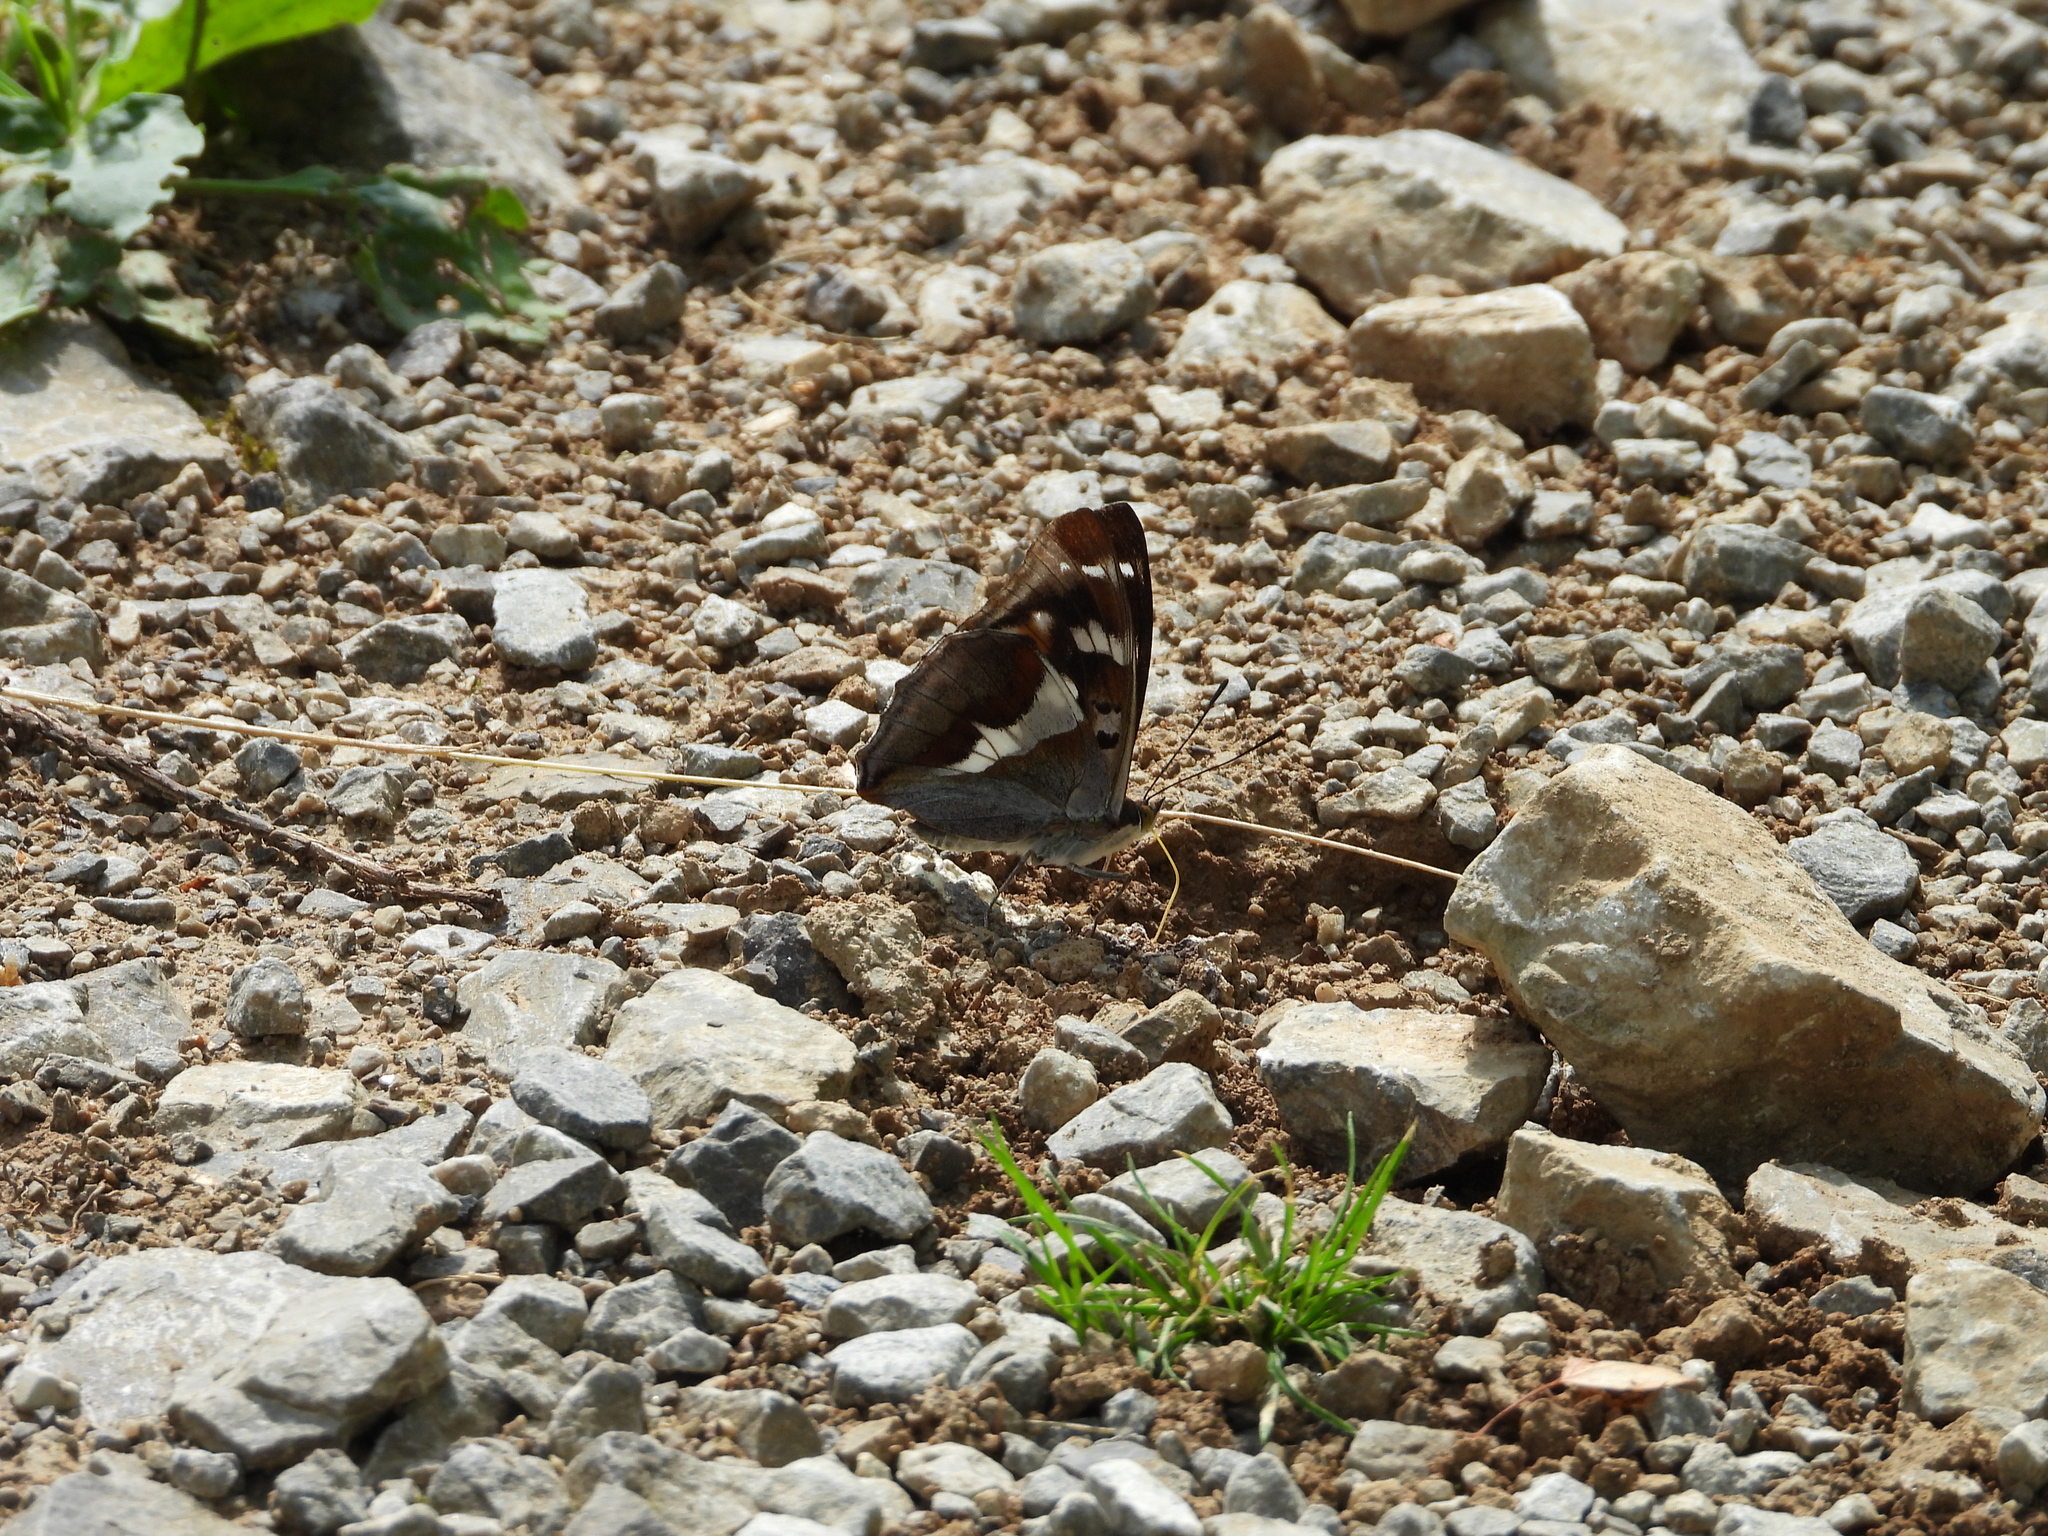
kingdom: Animalia
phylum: Arthropoda
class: Insecta
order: Lepidoptera
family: Nymphalidae
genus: Apatura
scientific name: Apatura iris
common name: Purple emperor
